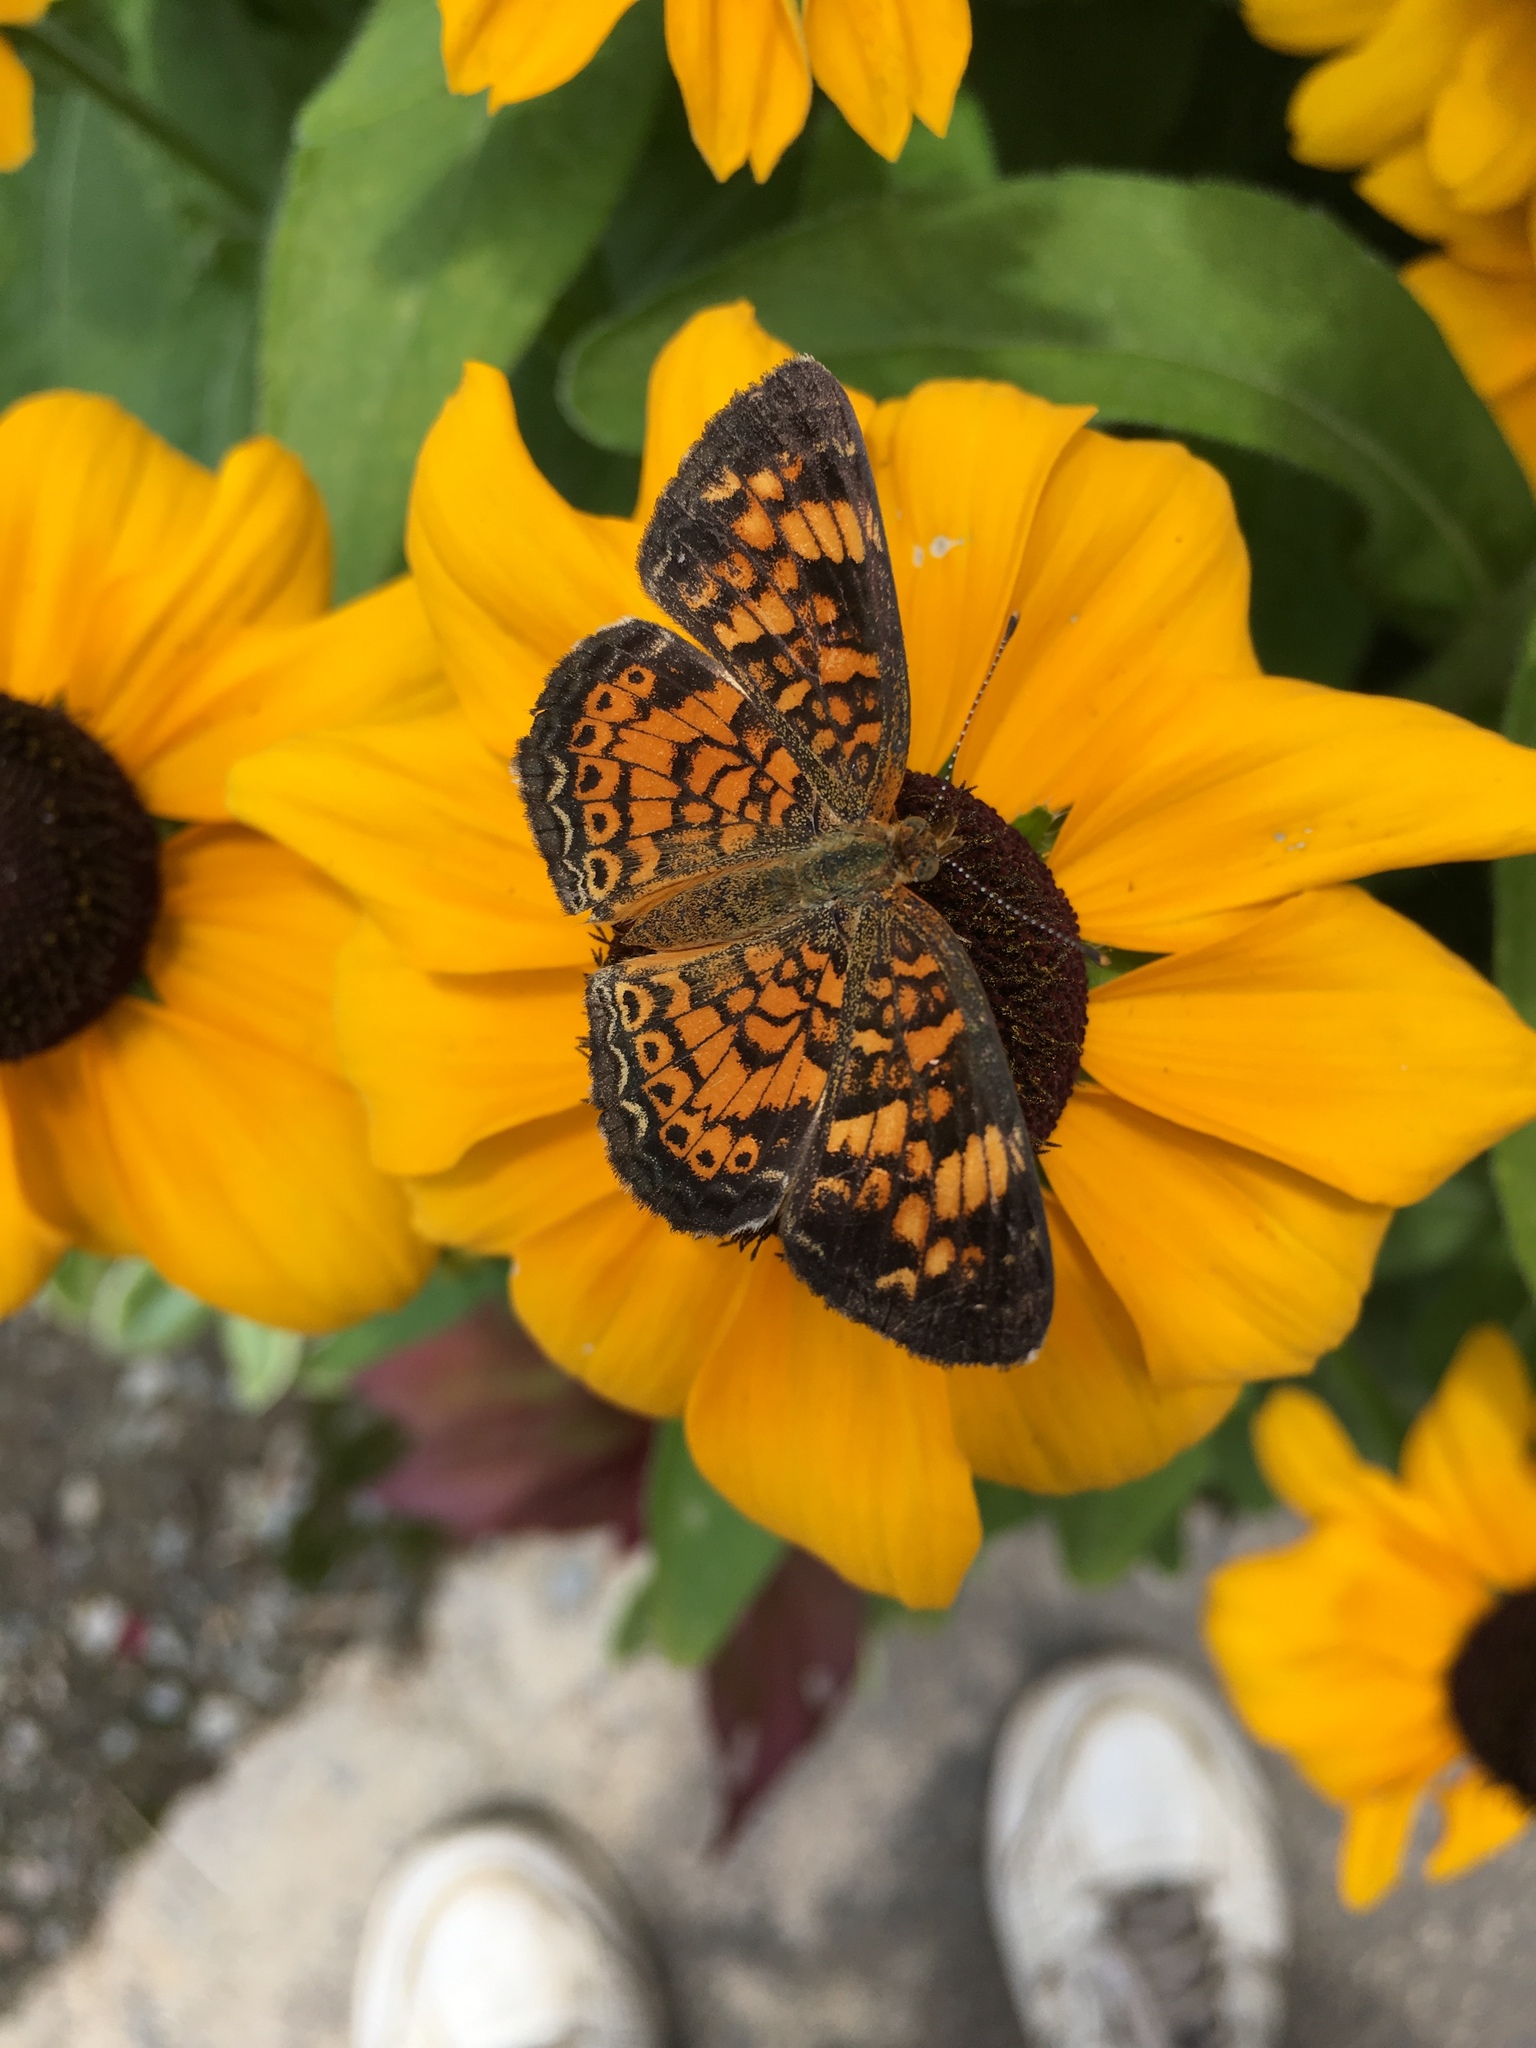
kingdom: Animalia
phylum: Arthropoda
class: Insecta
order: Lepidoptera
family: Nymphalidae
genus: Phyciodes
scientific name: Phyciodes tharos
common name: Pearl crescent
